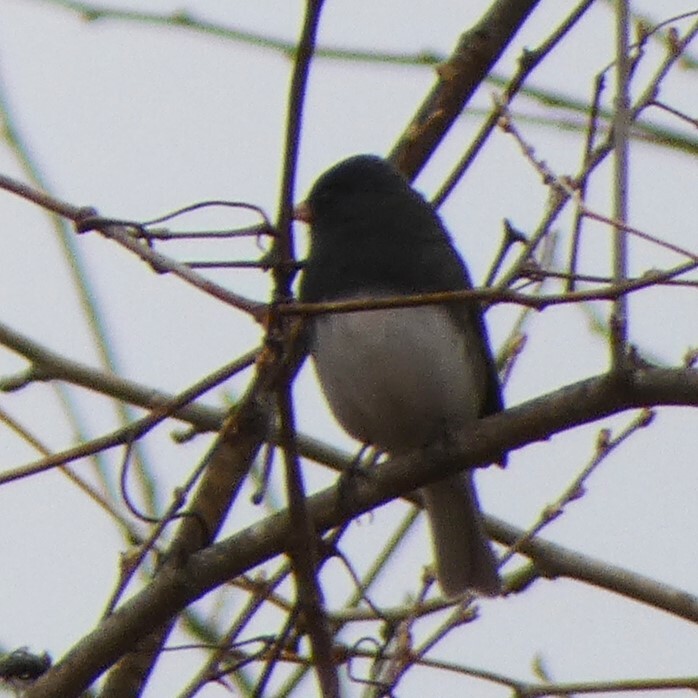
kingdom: Animalia
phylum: Chordata
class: Aves
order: Passeriformes
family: Passerellidae
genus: Junco
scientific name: Junco hyemalis
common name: Dark-eyed junco
